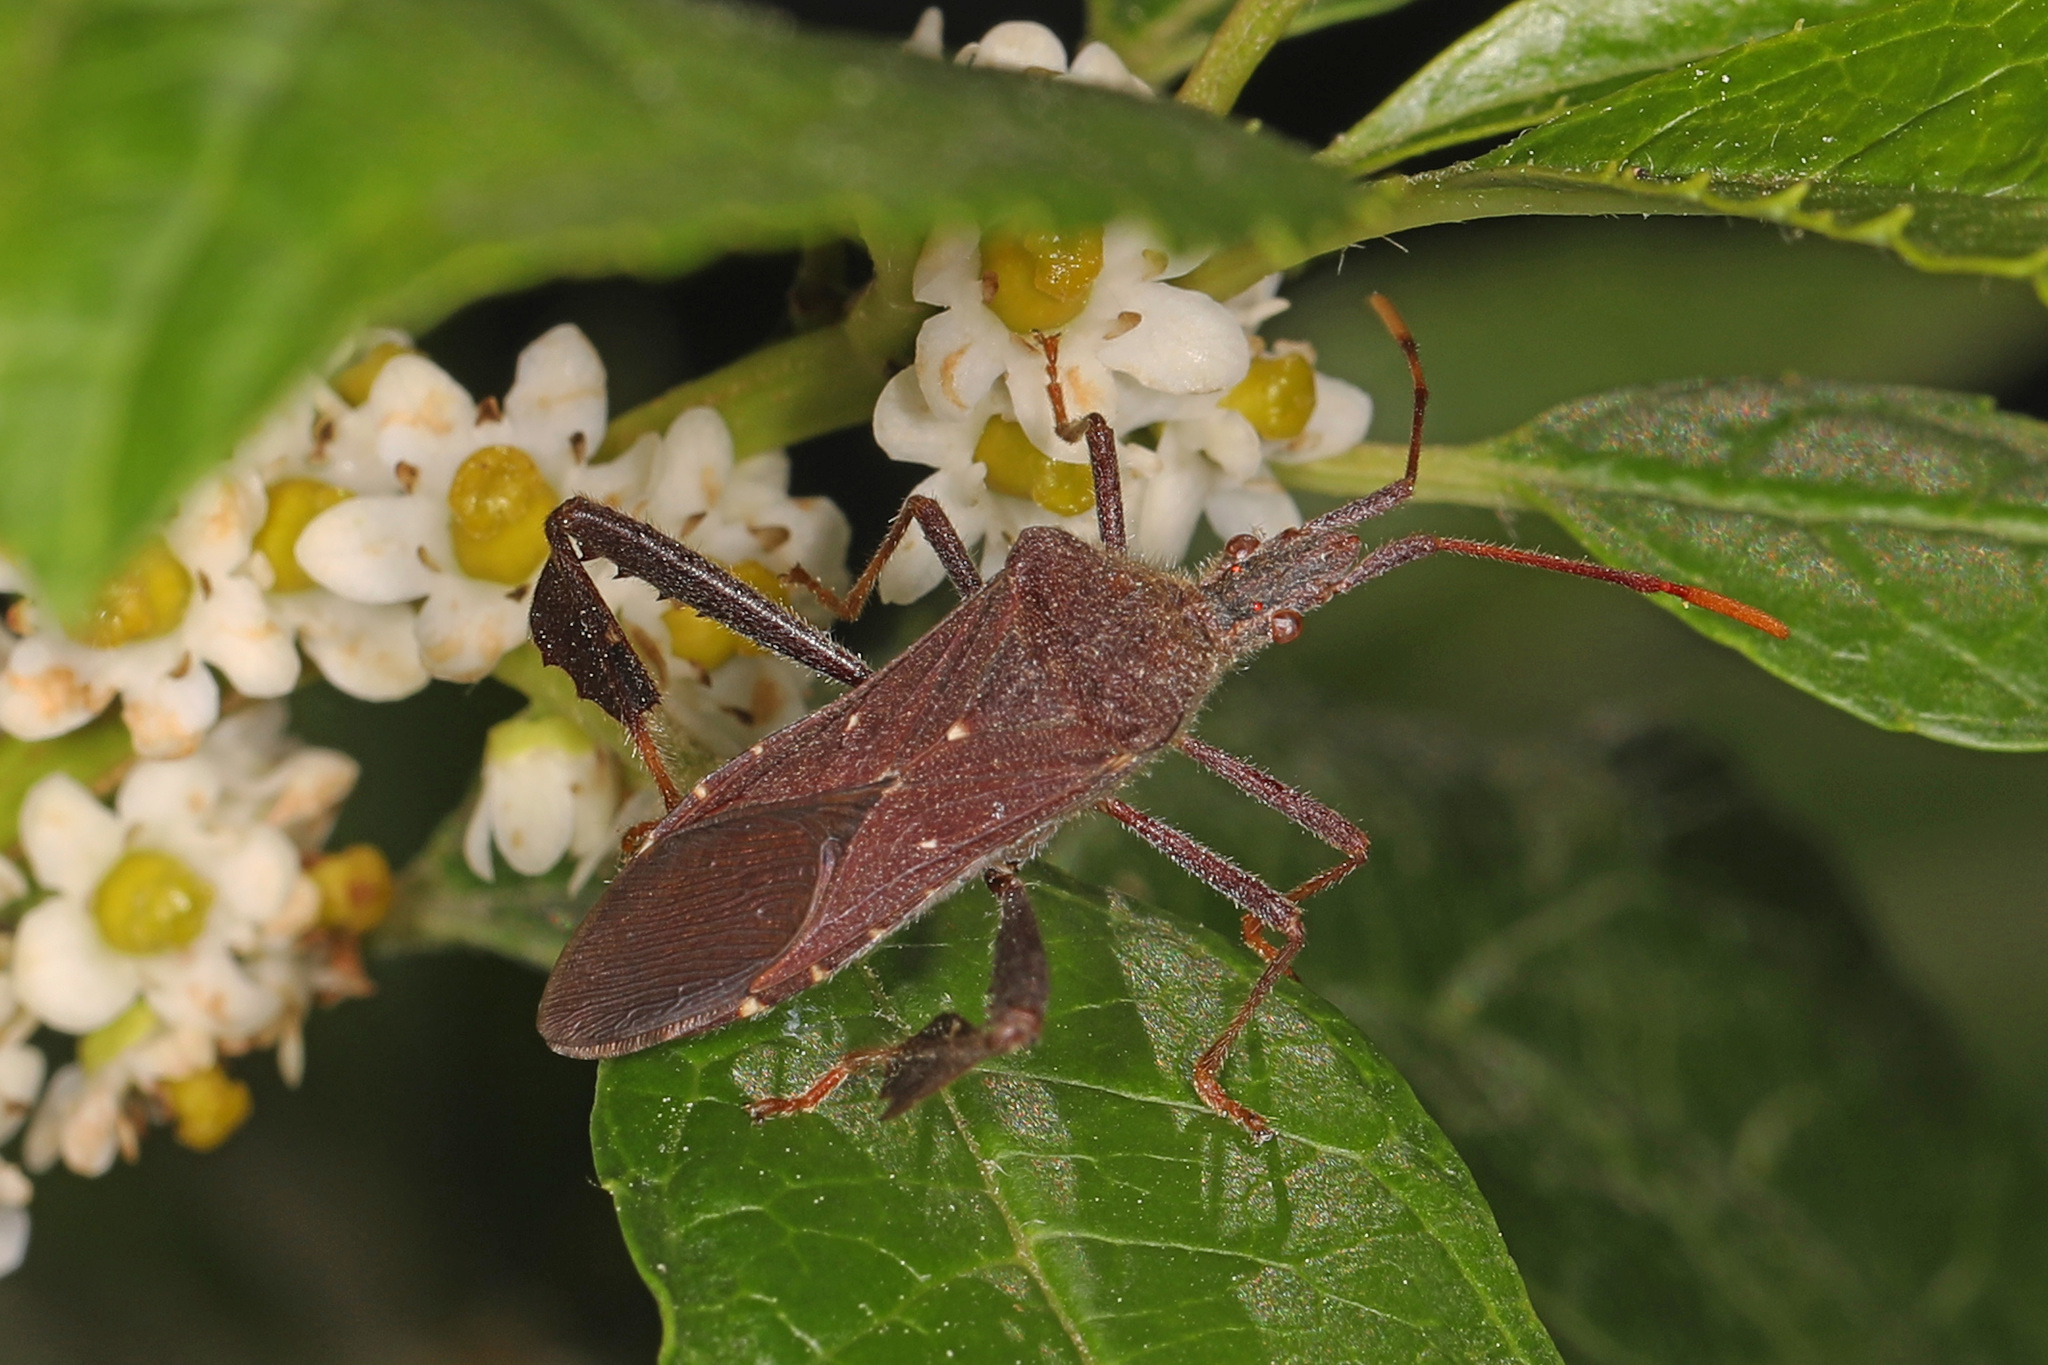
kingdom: Animalia
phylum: Arthropoda
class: Insecta
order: Hemiptera
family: Coreidae
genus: Leptoglossus
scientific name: Leptoglossus oppositus
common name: Northern leaf-footed bug
